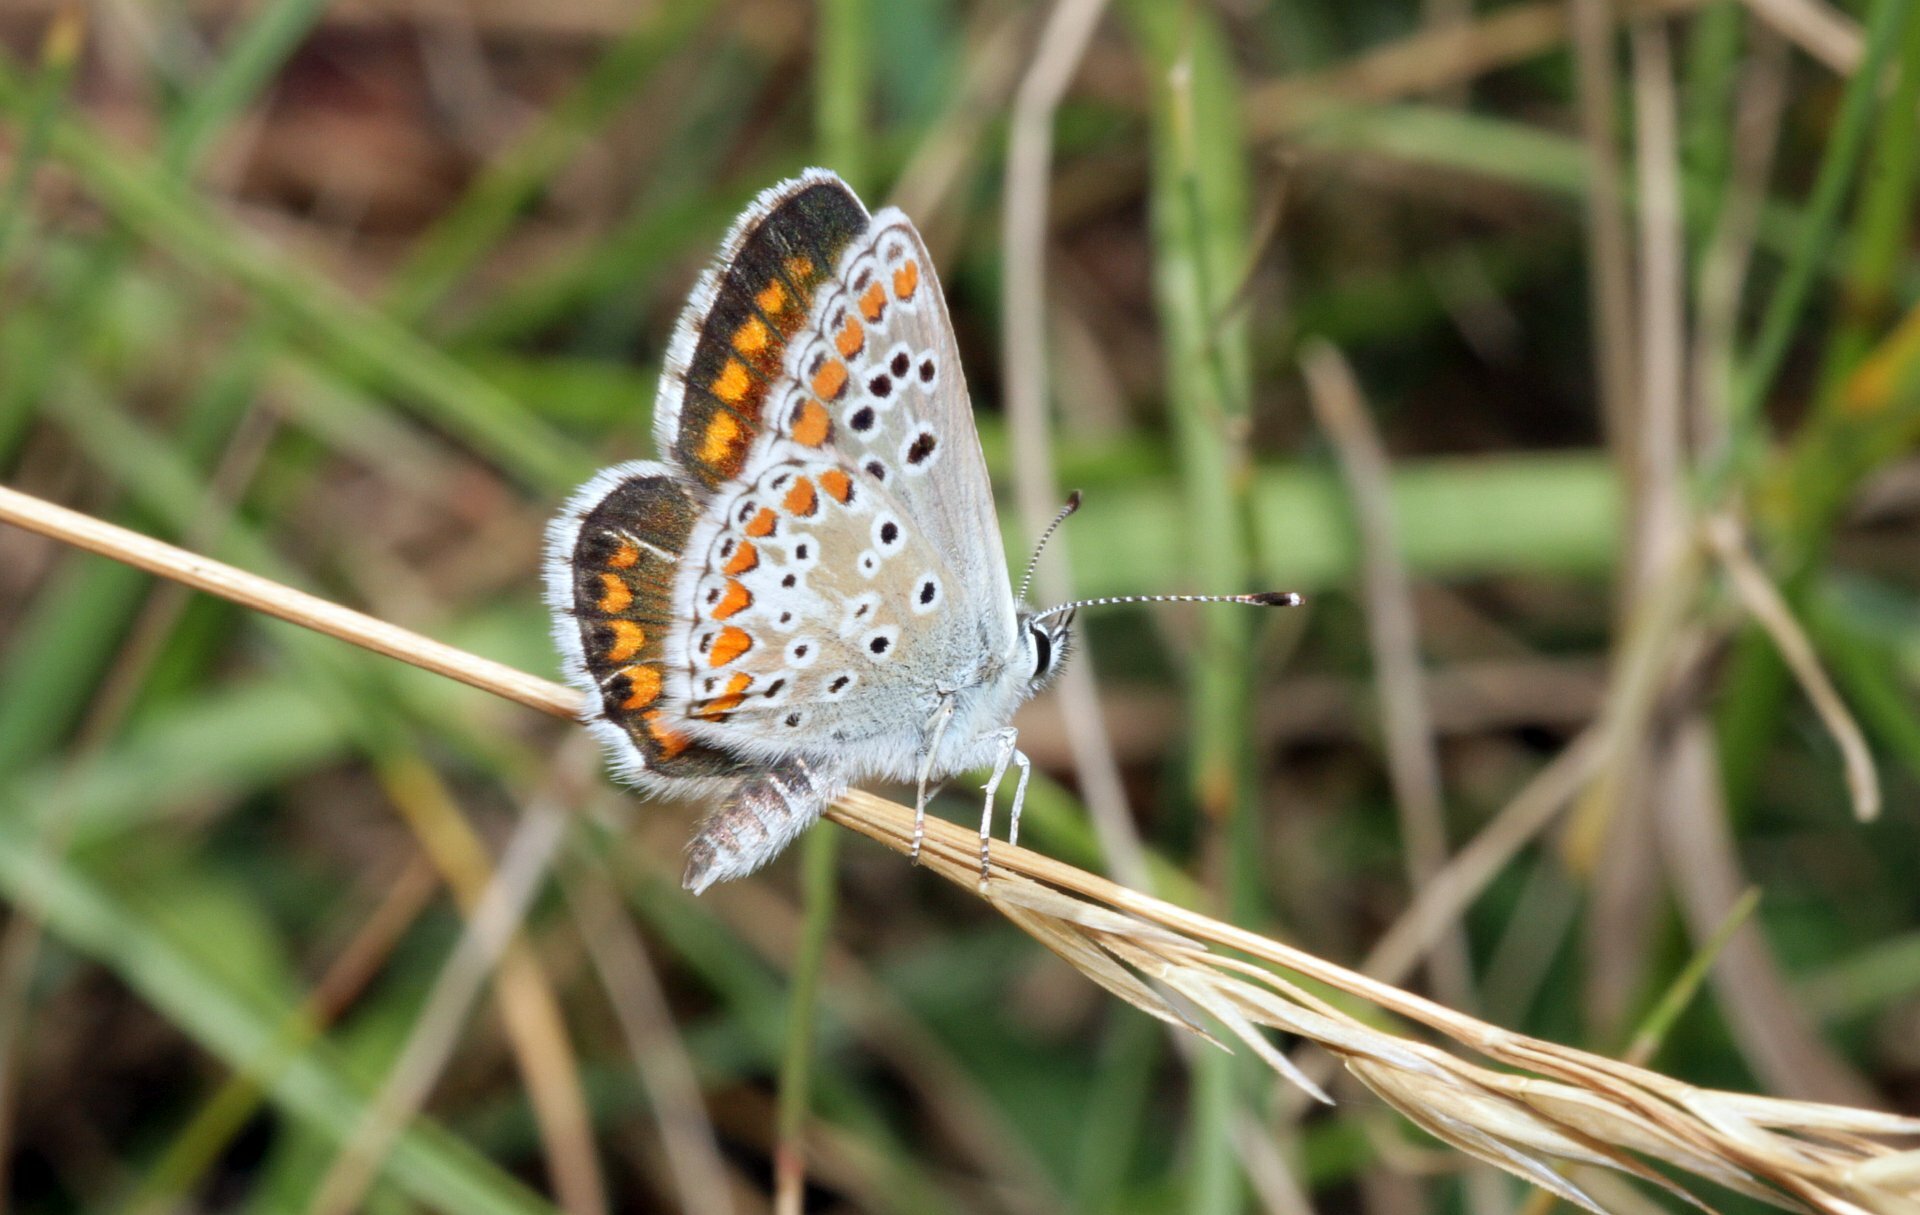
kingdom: Animalia
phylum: Arthropoda
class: Insecta
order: Lepidoptera
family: Lycaenidae
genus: Aricia
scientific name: Aricia agestis
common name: Brown argus
